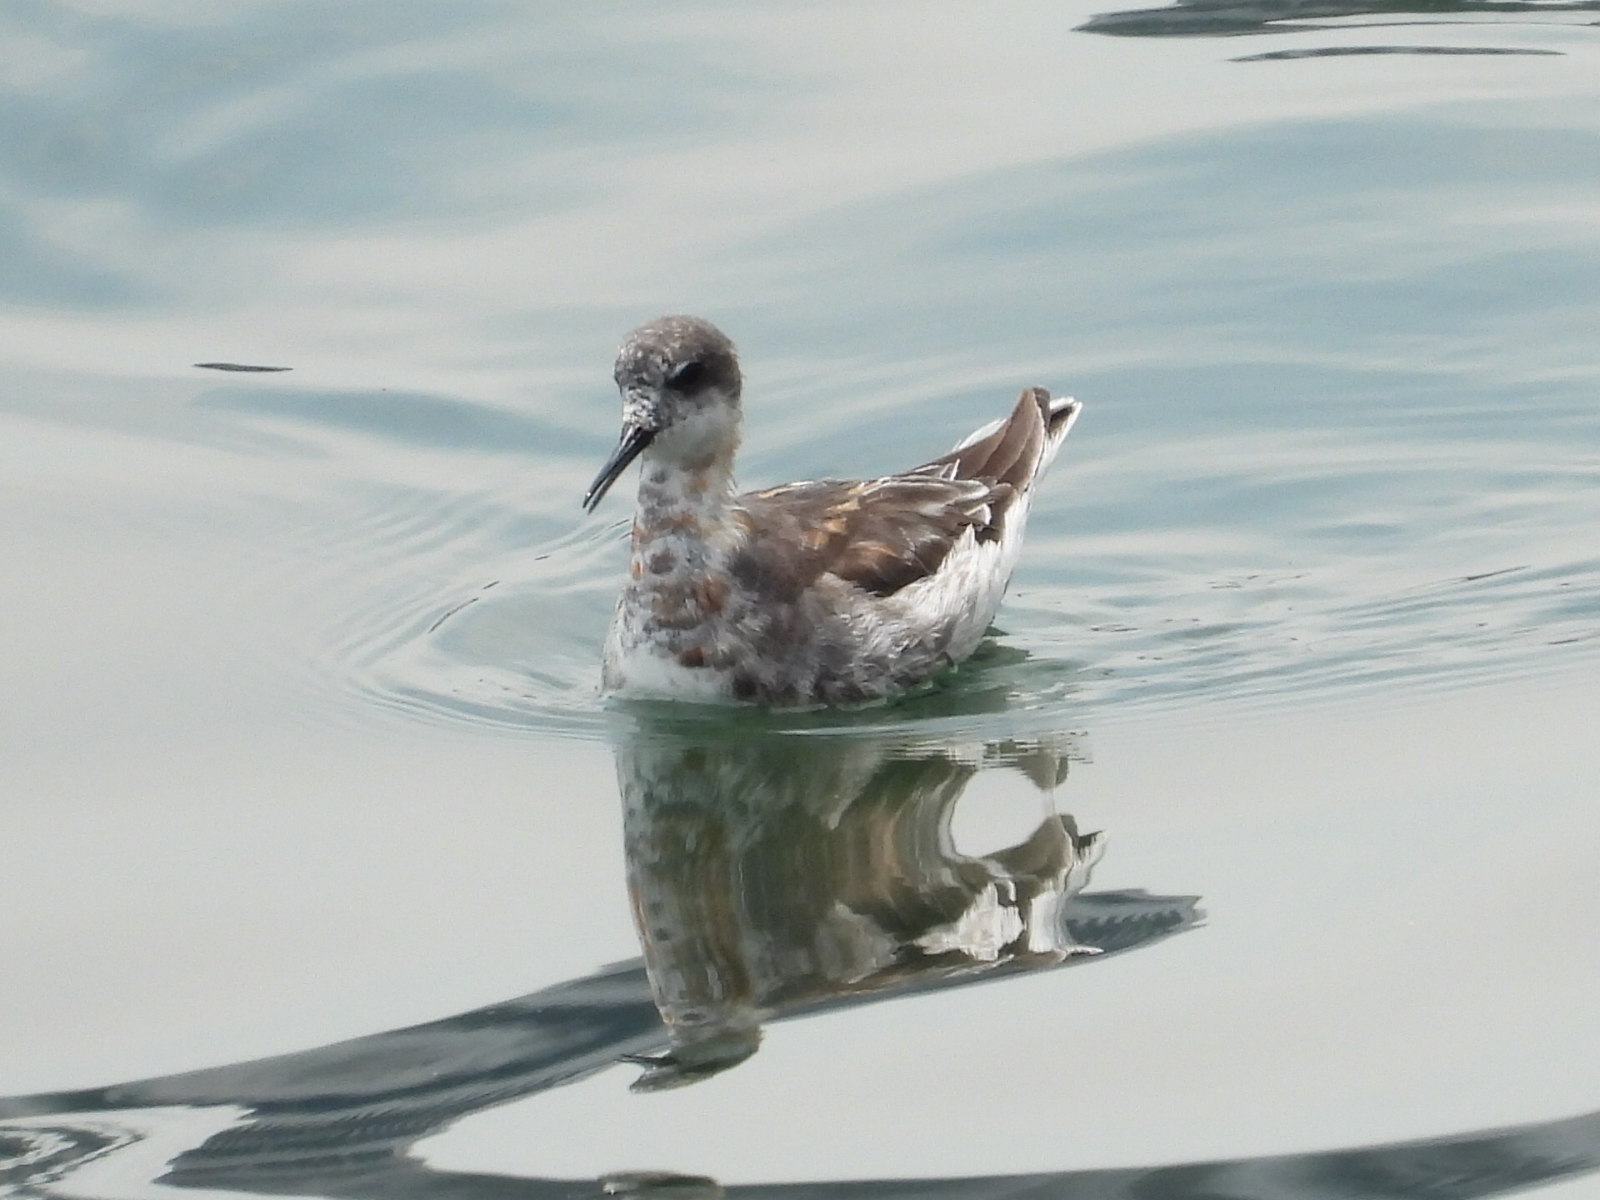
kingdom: Animalia
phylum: Chordata
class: Aves
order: Charadriiformes
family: Scolopacidae
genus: Phalaropus
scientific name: Phalaropus lobatus
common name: Red-necked phalarope
